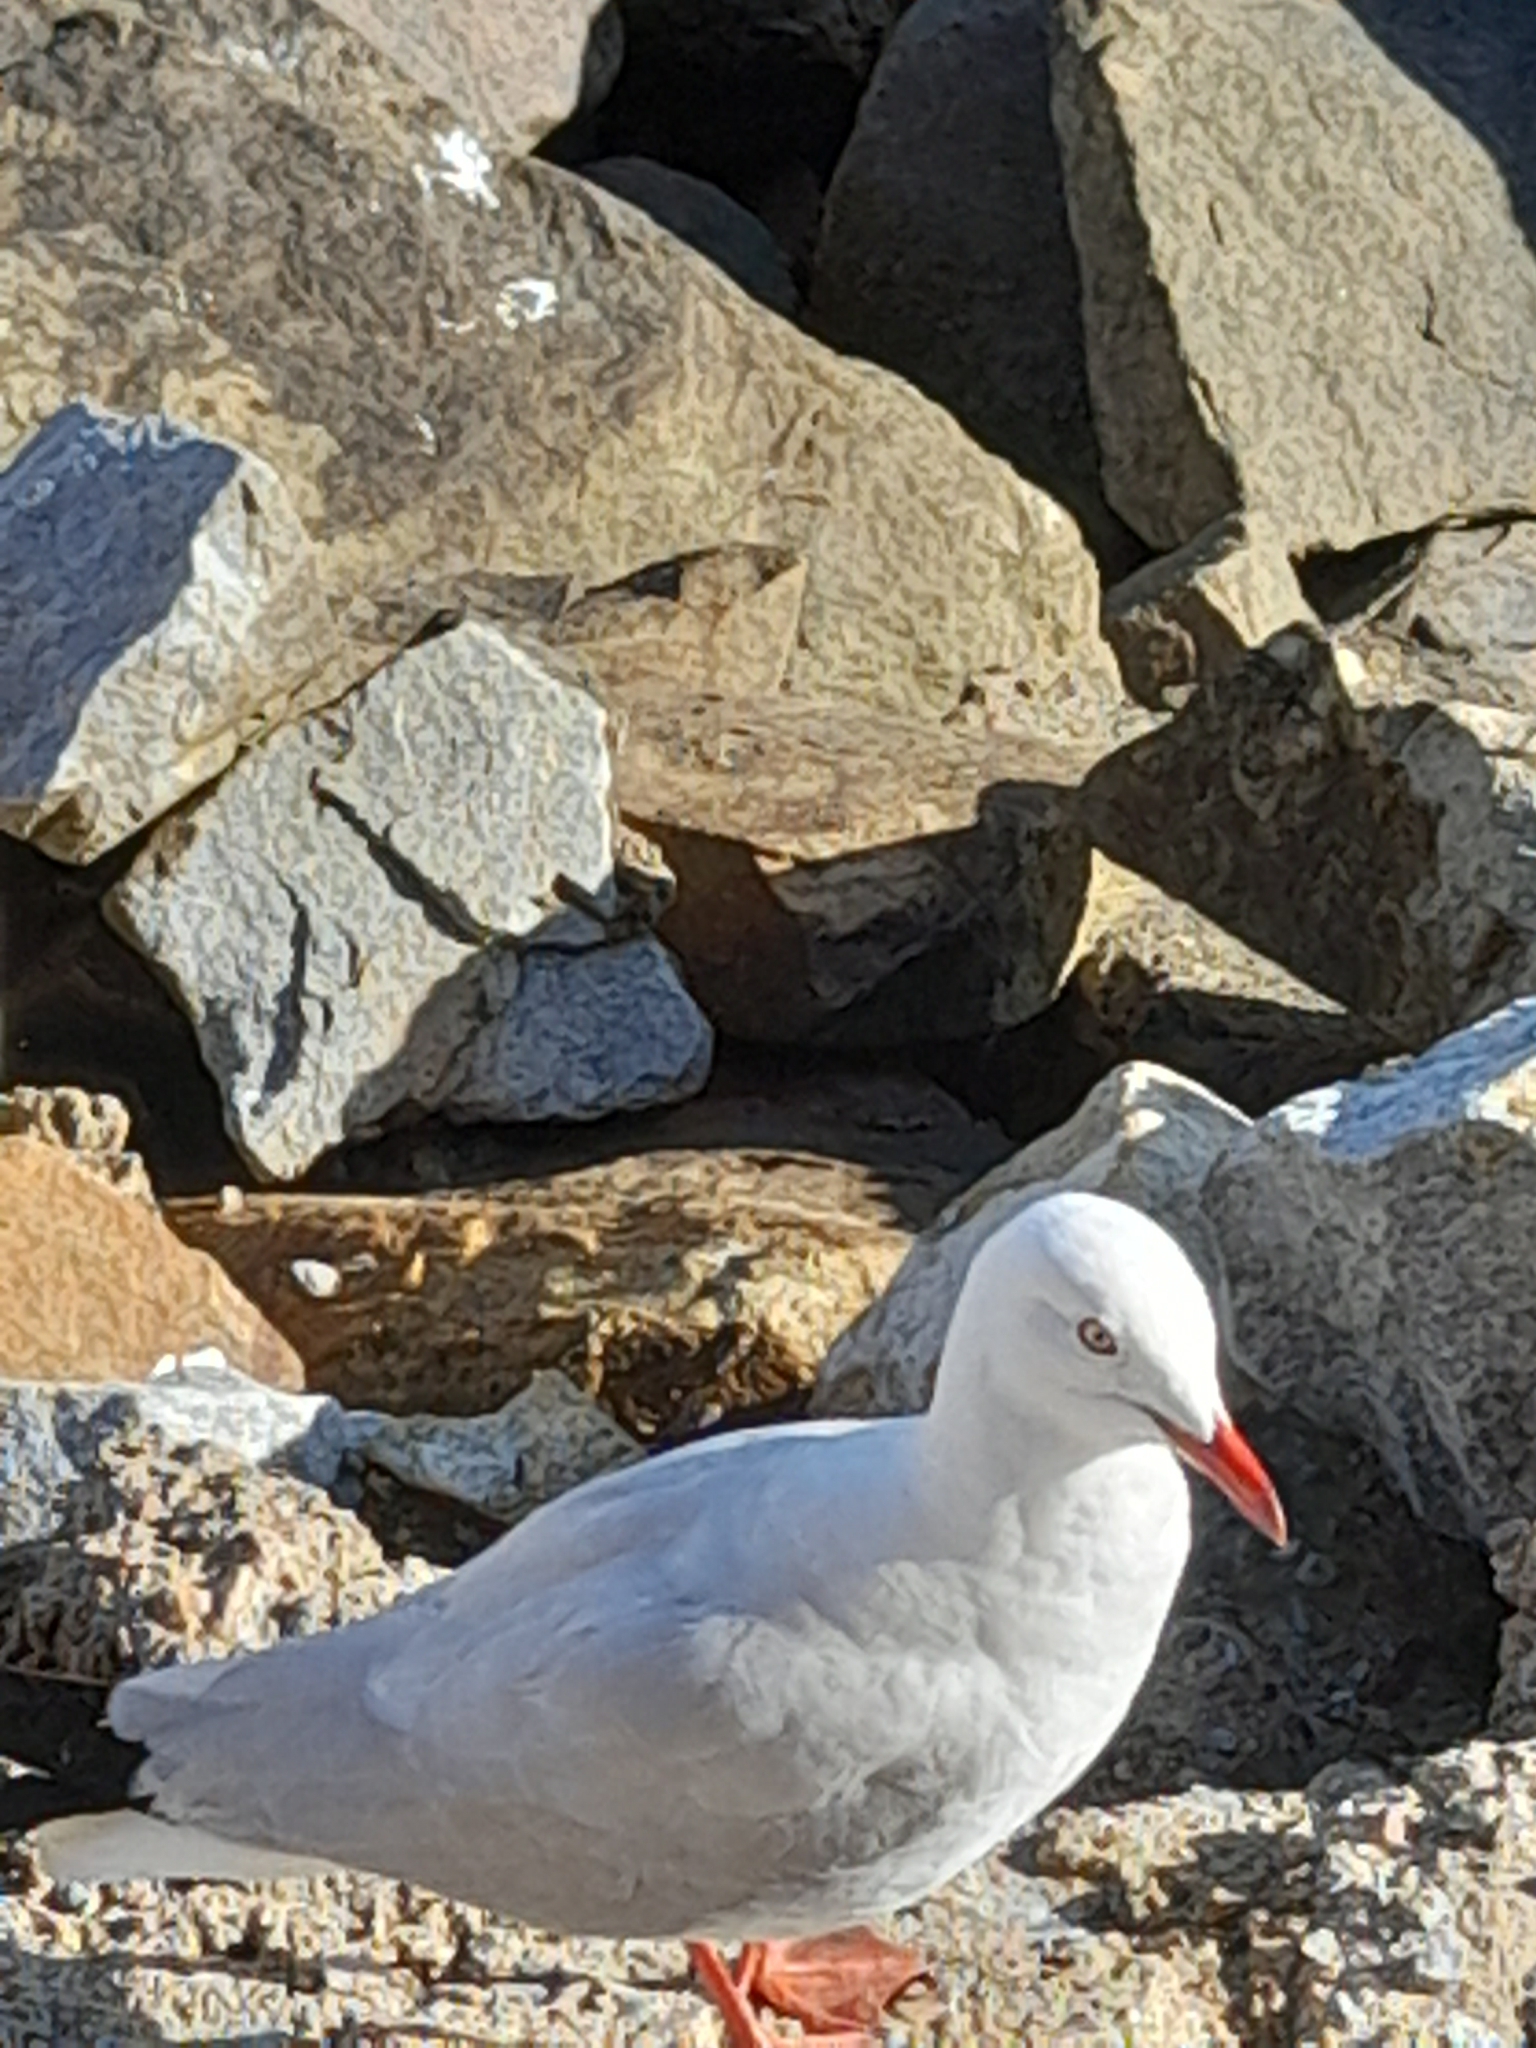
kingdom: Animalia
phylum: Chordata
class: Aves
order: Charadriiformes
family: Laridae
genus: Chroicocephalus
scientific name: Chroicocephalus novaehollandiae
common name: Silver gull
